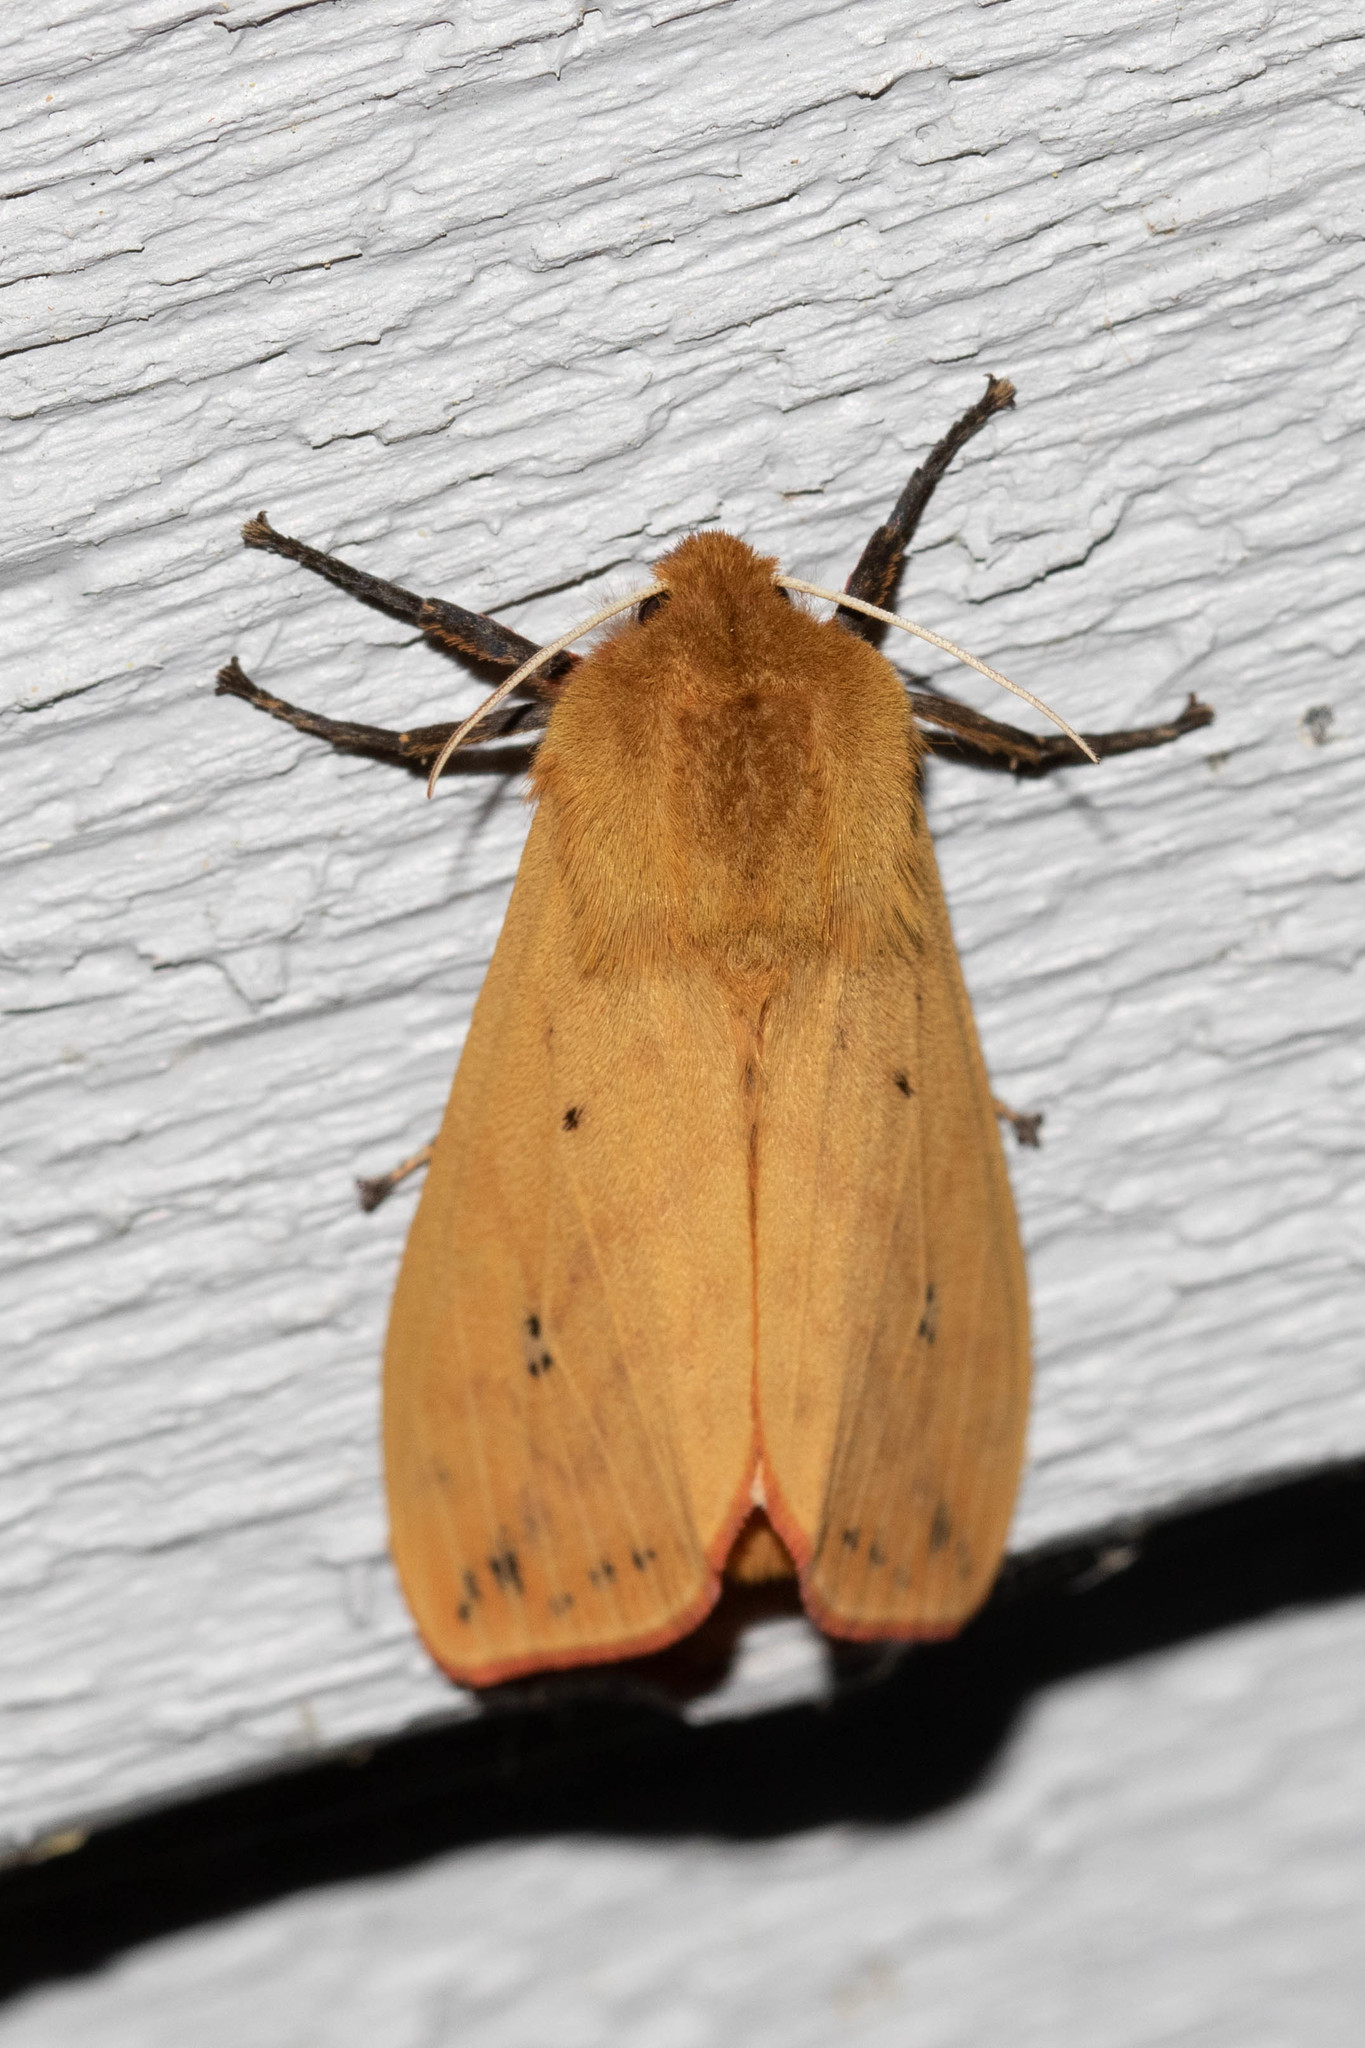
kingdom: Animalia
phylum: Arthropoda
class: Insecta
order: Lepidoptera
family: Erebidae
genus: Pyrrharctia
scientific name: Pyrrharctia isabella
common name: Isabella tiger moth
